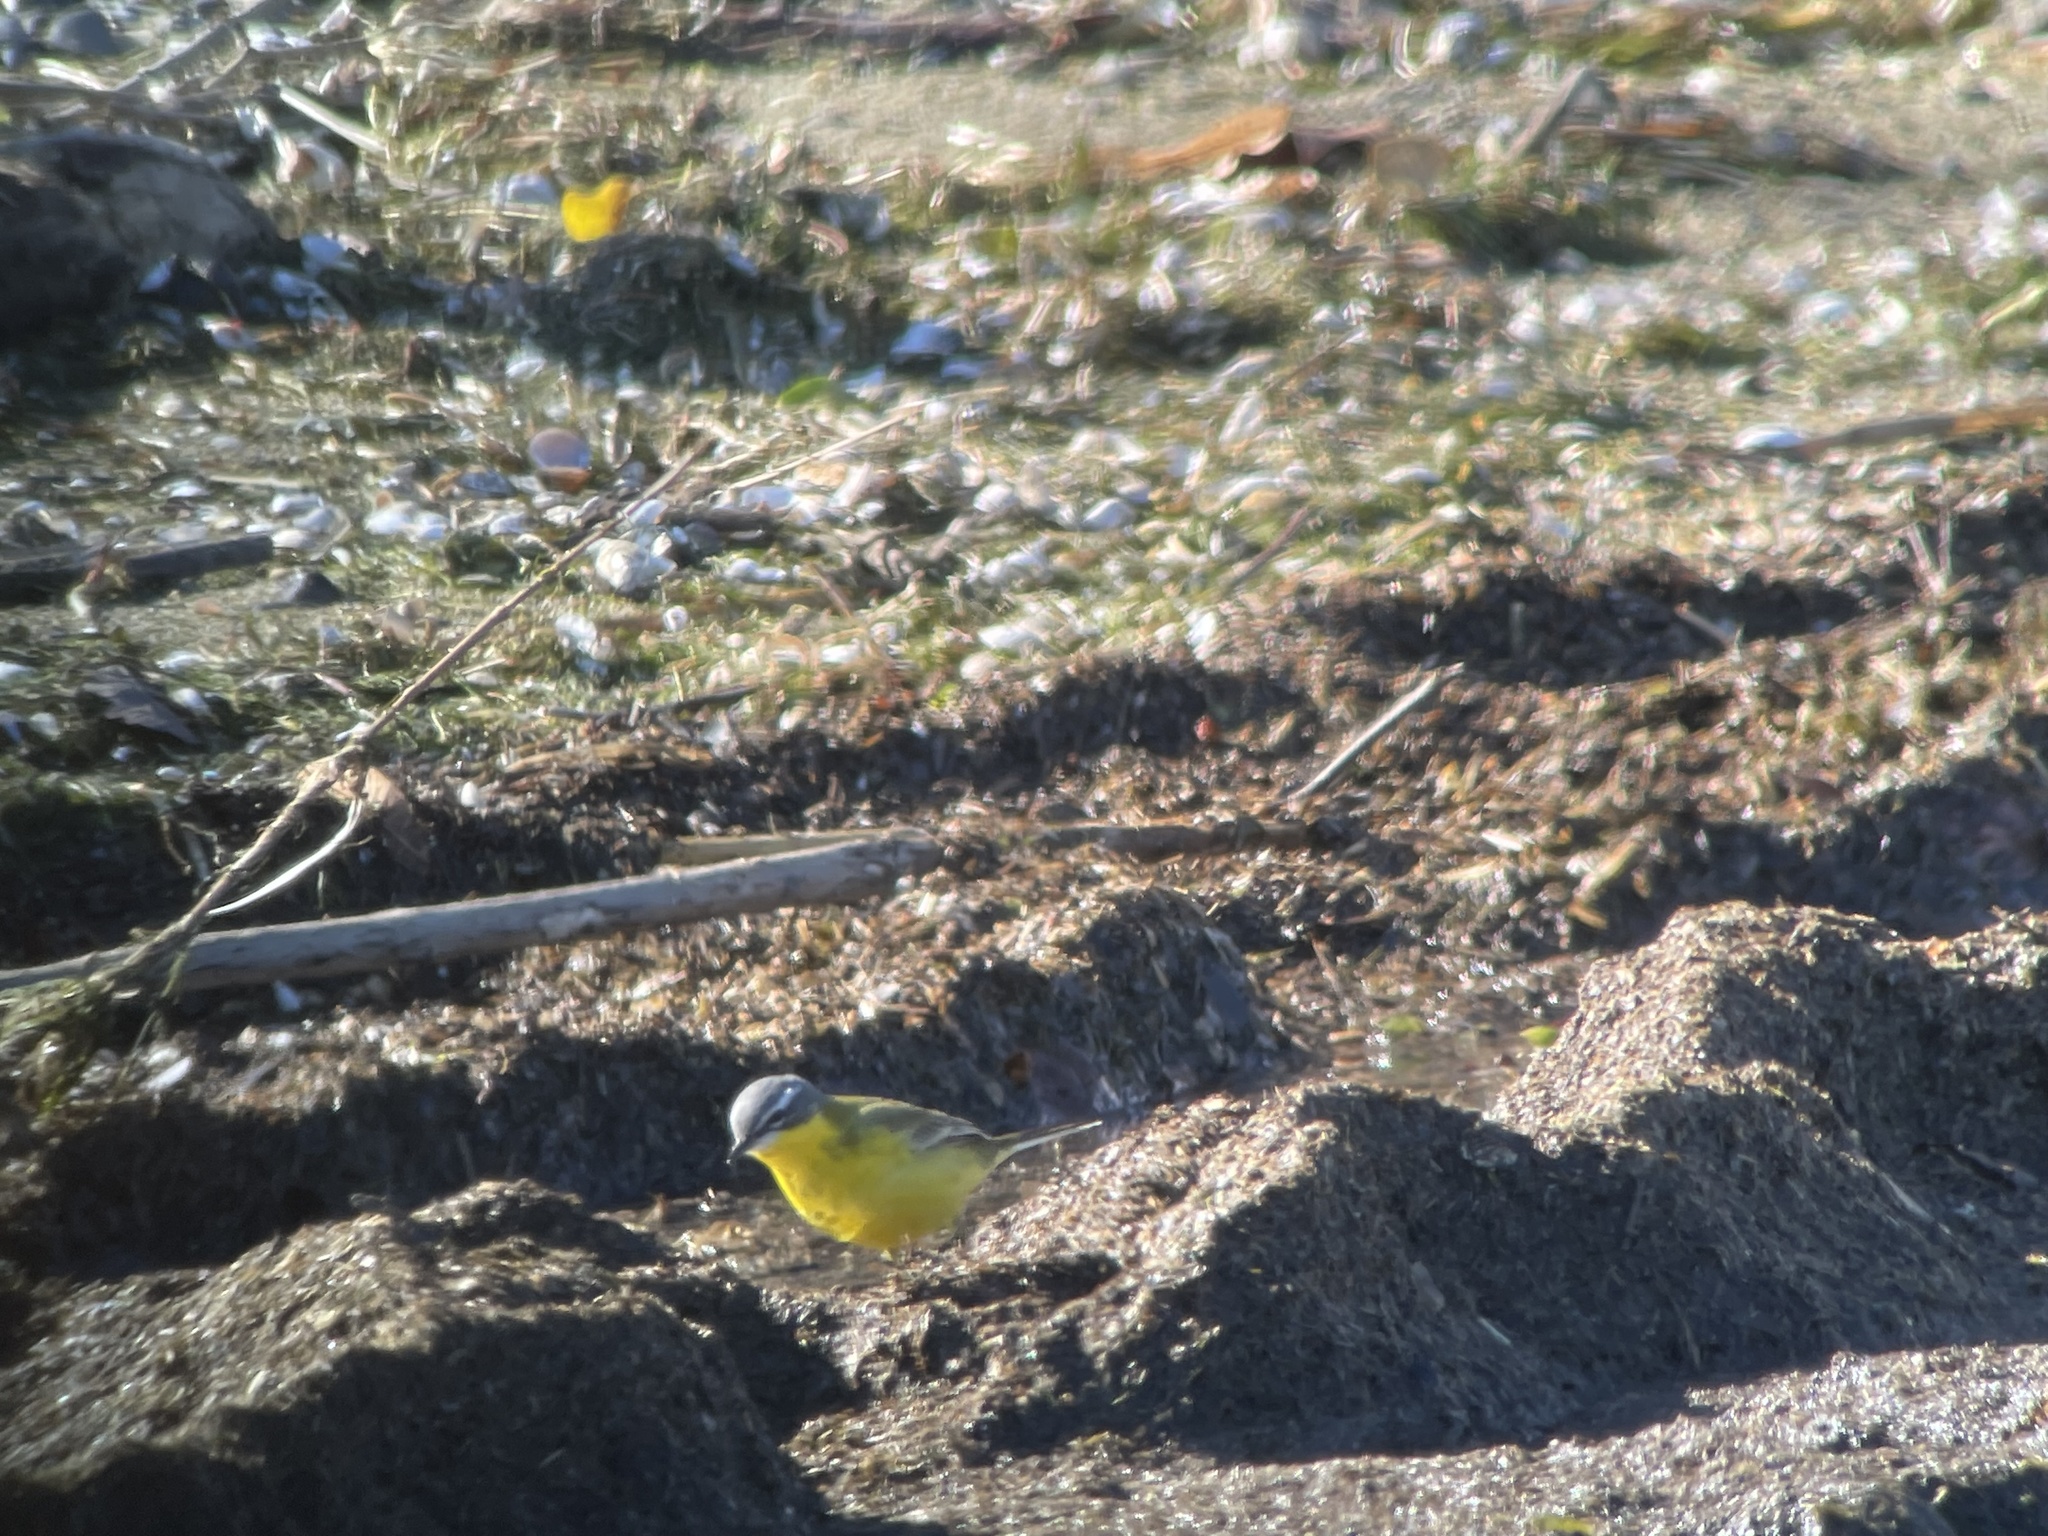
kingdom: Animalia
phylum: Chordata
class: Aves
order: Passeriformes
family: Motacillidae
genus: Motacilla
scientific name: Motacilla flava
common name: Western yellow wagtail
